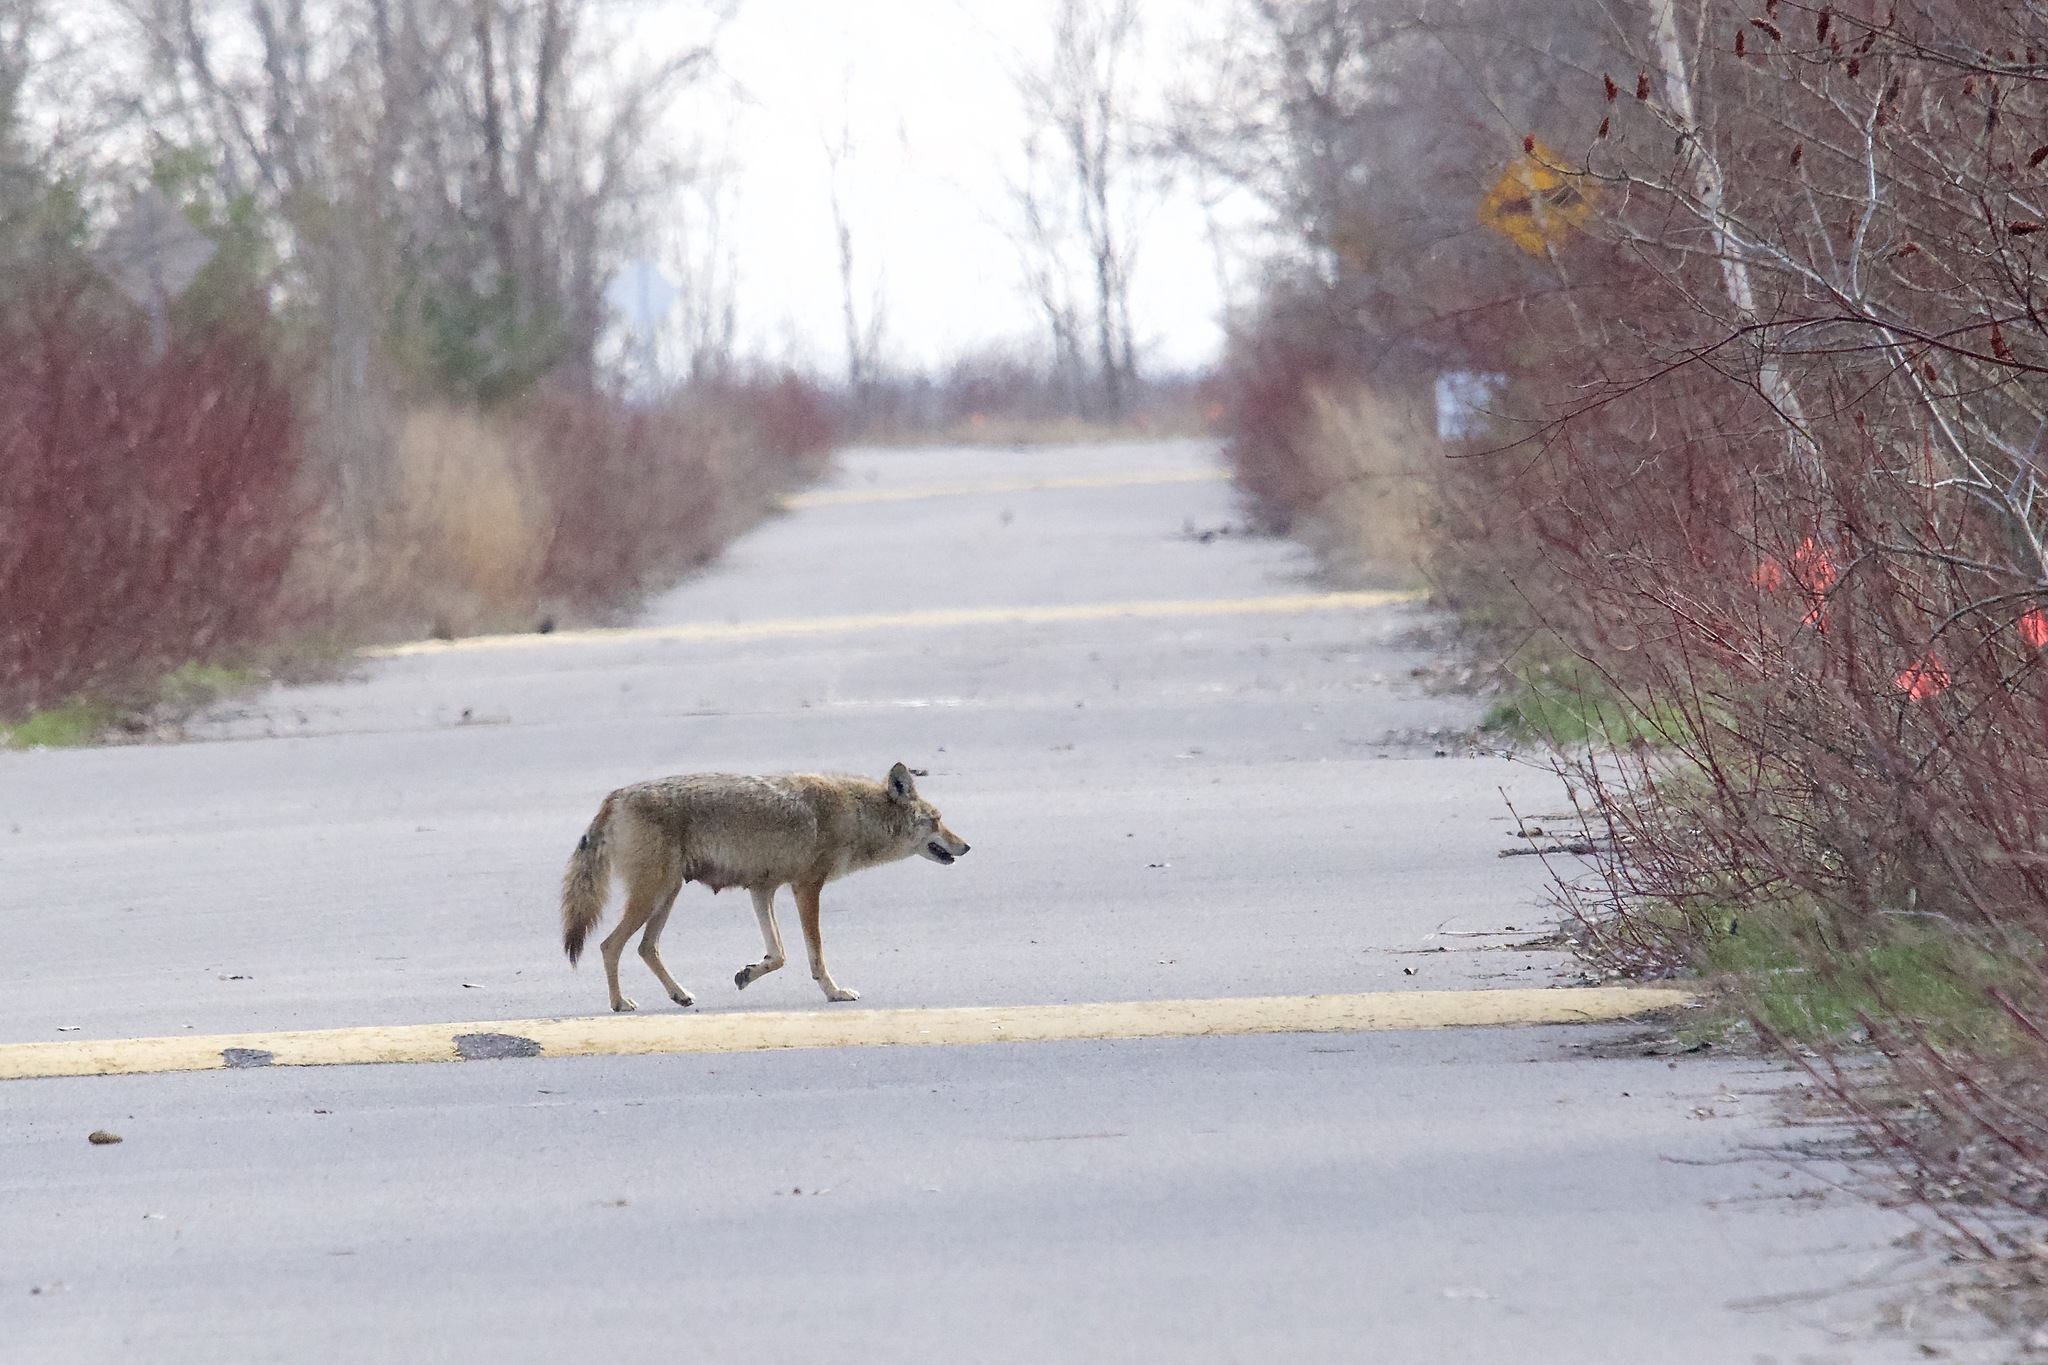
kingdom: Animalia
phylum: Chordata
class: Mammalia
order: Carnivora
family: Canidae
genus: Canis
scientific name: Canis latrans
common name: Coyote
